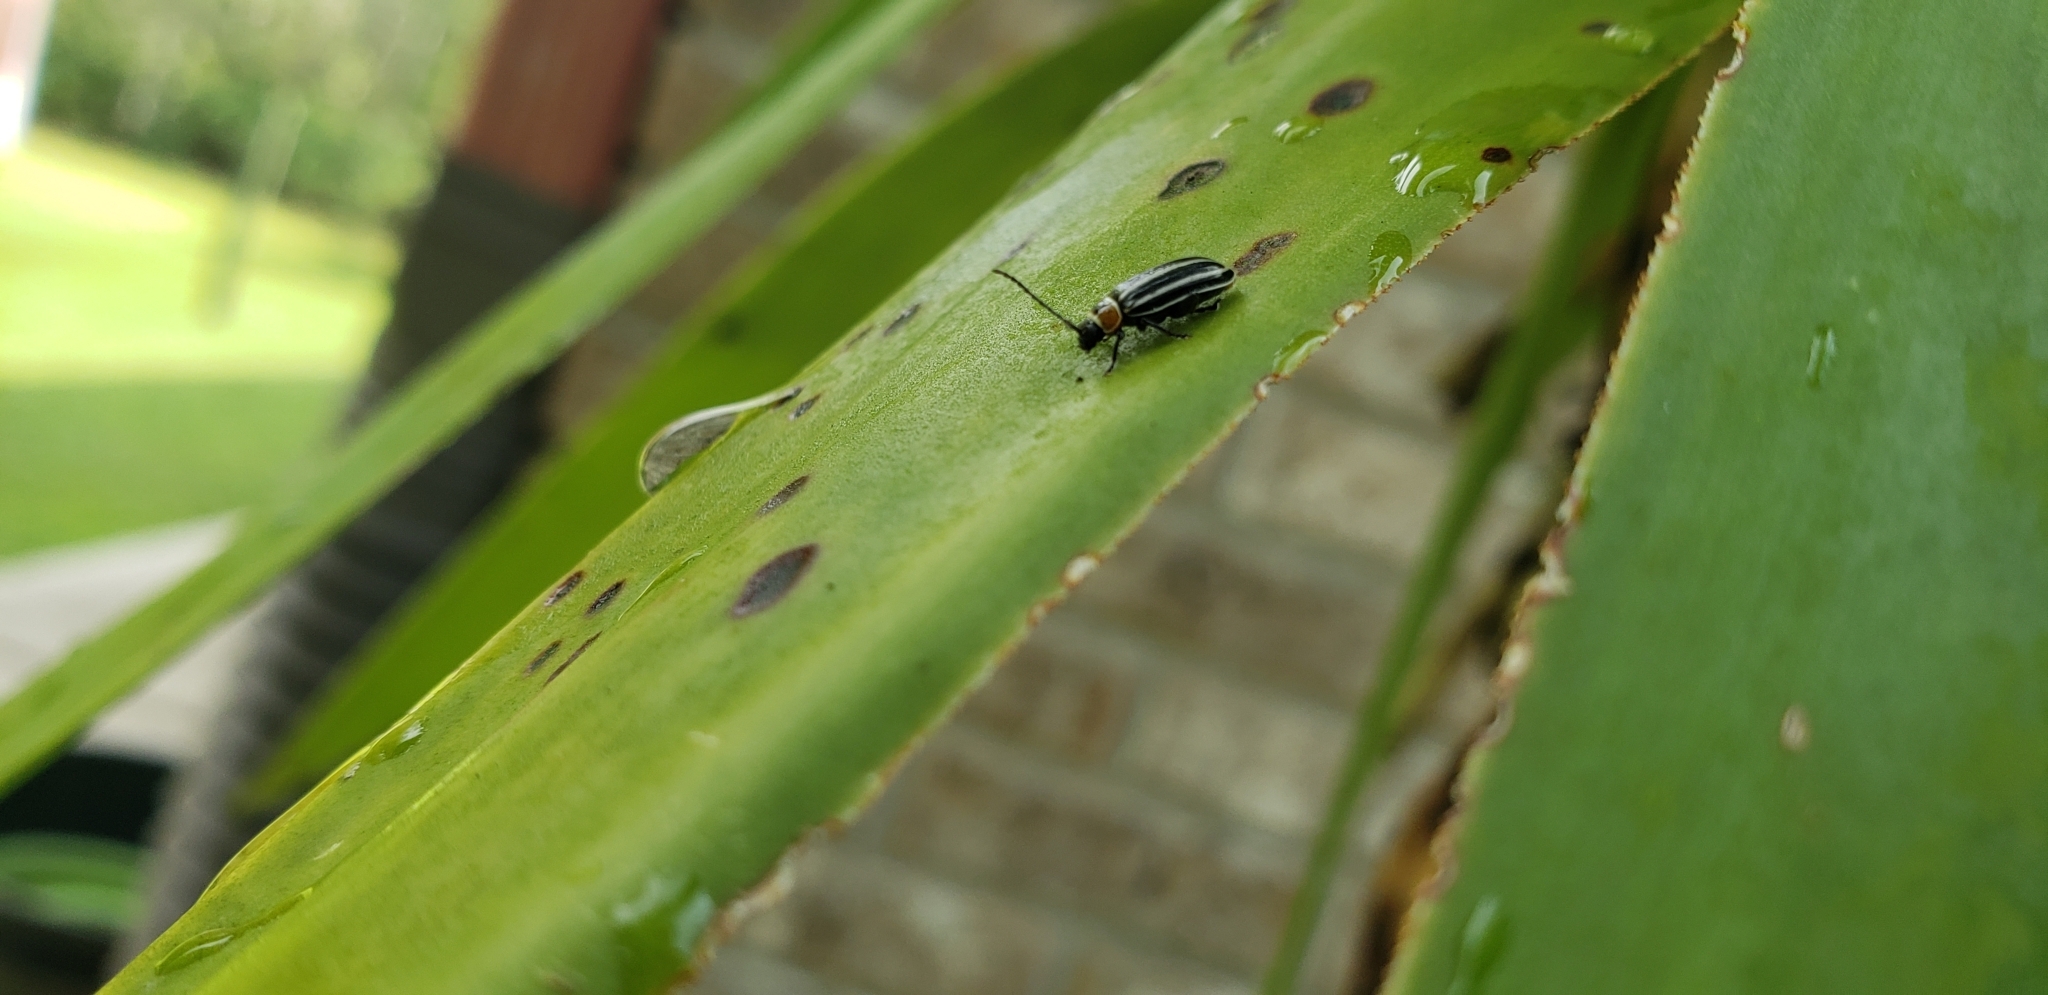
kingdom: Animalia
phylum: Arthropoda
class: Insecta
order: Coleoptera
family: Chrysomelidae
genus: Disonycha
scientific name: Disonycha pensylvanica
